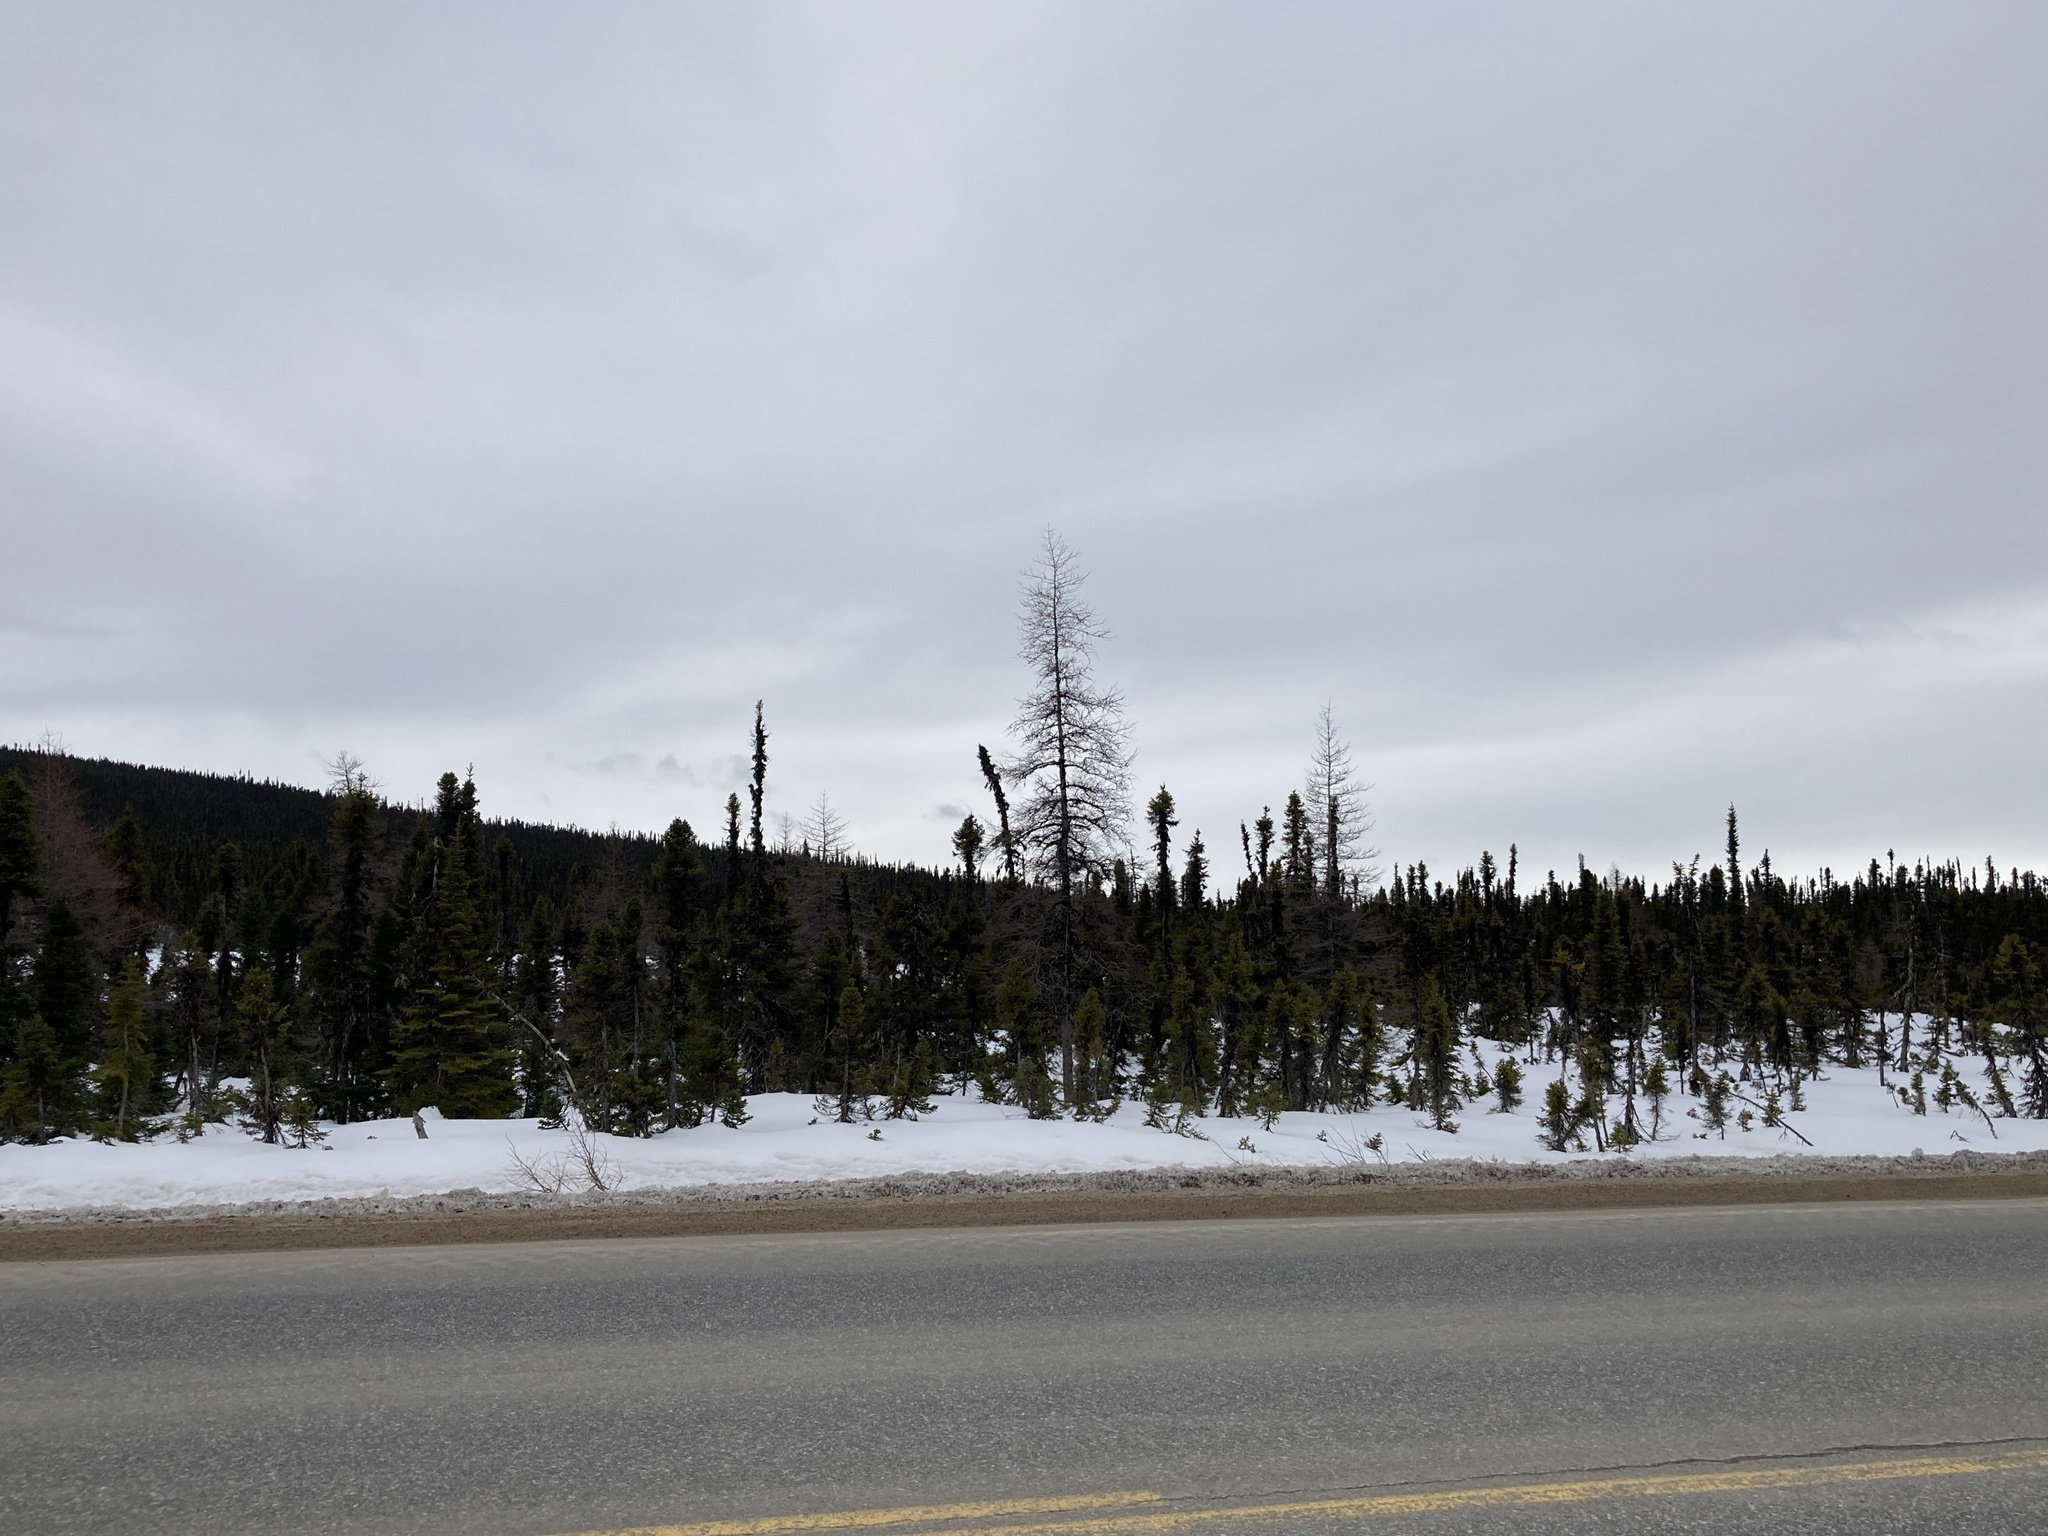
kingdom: Animalia
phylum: Chordata
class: Mammalia
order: Carnivora
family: Canidae
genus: Canis
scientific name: Canis lupus
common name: Gray wolf
